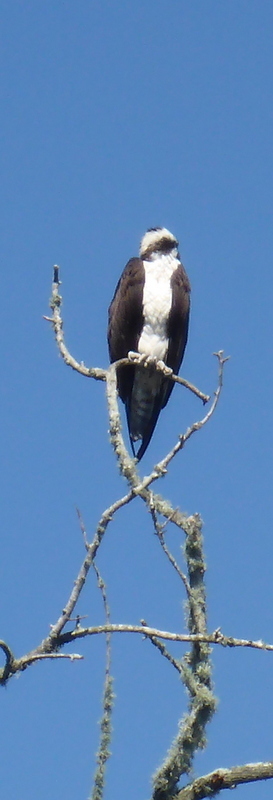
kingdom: Animalia
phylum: Chordata
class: Aves
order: Accipitriformes
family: Pandionidae
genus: Pandion
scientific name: Pandion haliaetus
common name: Osprey
